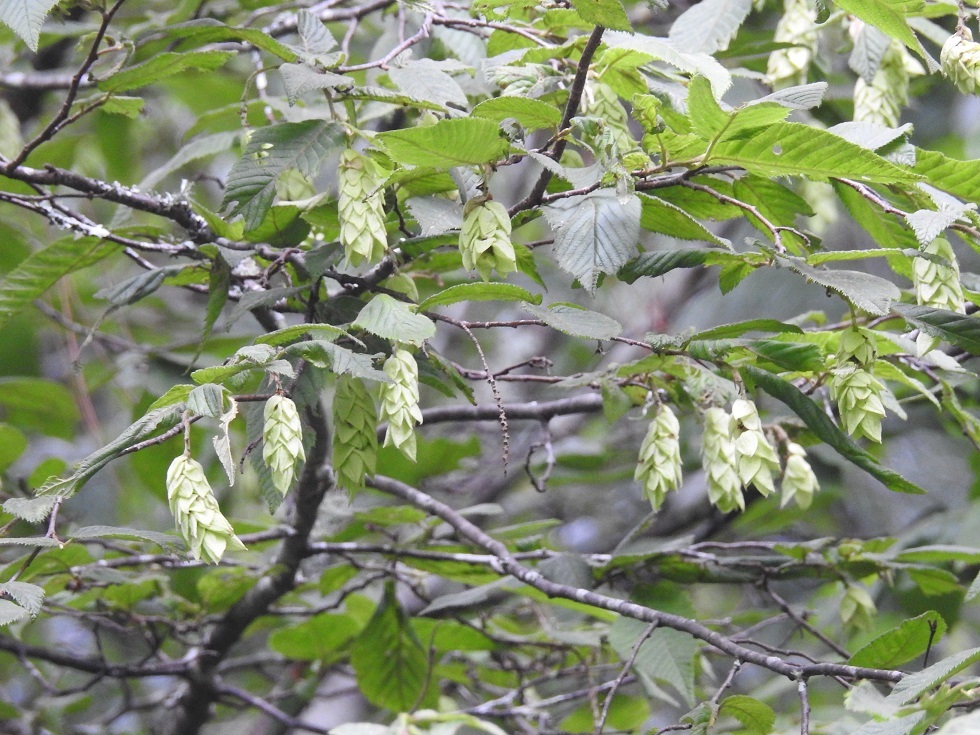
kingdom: Plantae
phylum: Tracheophyta
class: Magnoliopsida
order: Fagales
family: Betulaceae
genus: Ostrya
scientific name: Ostrya virginiana
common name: Ironwood
